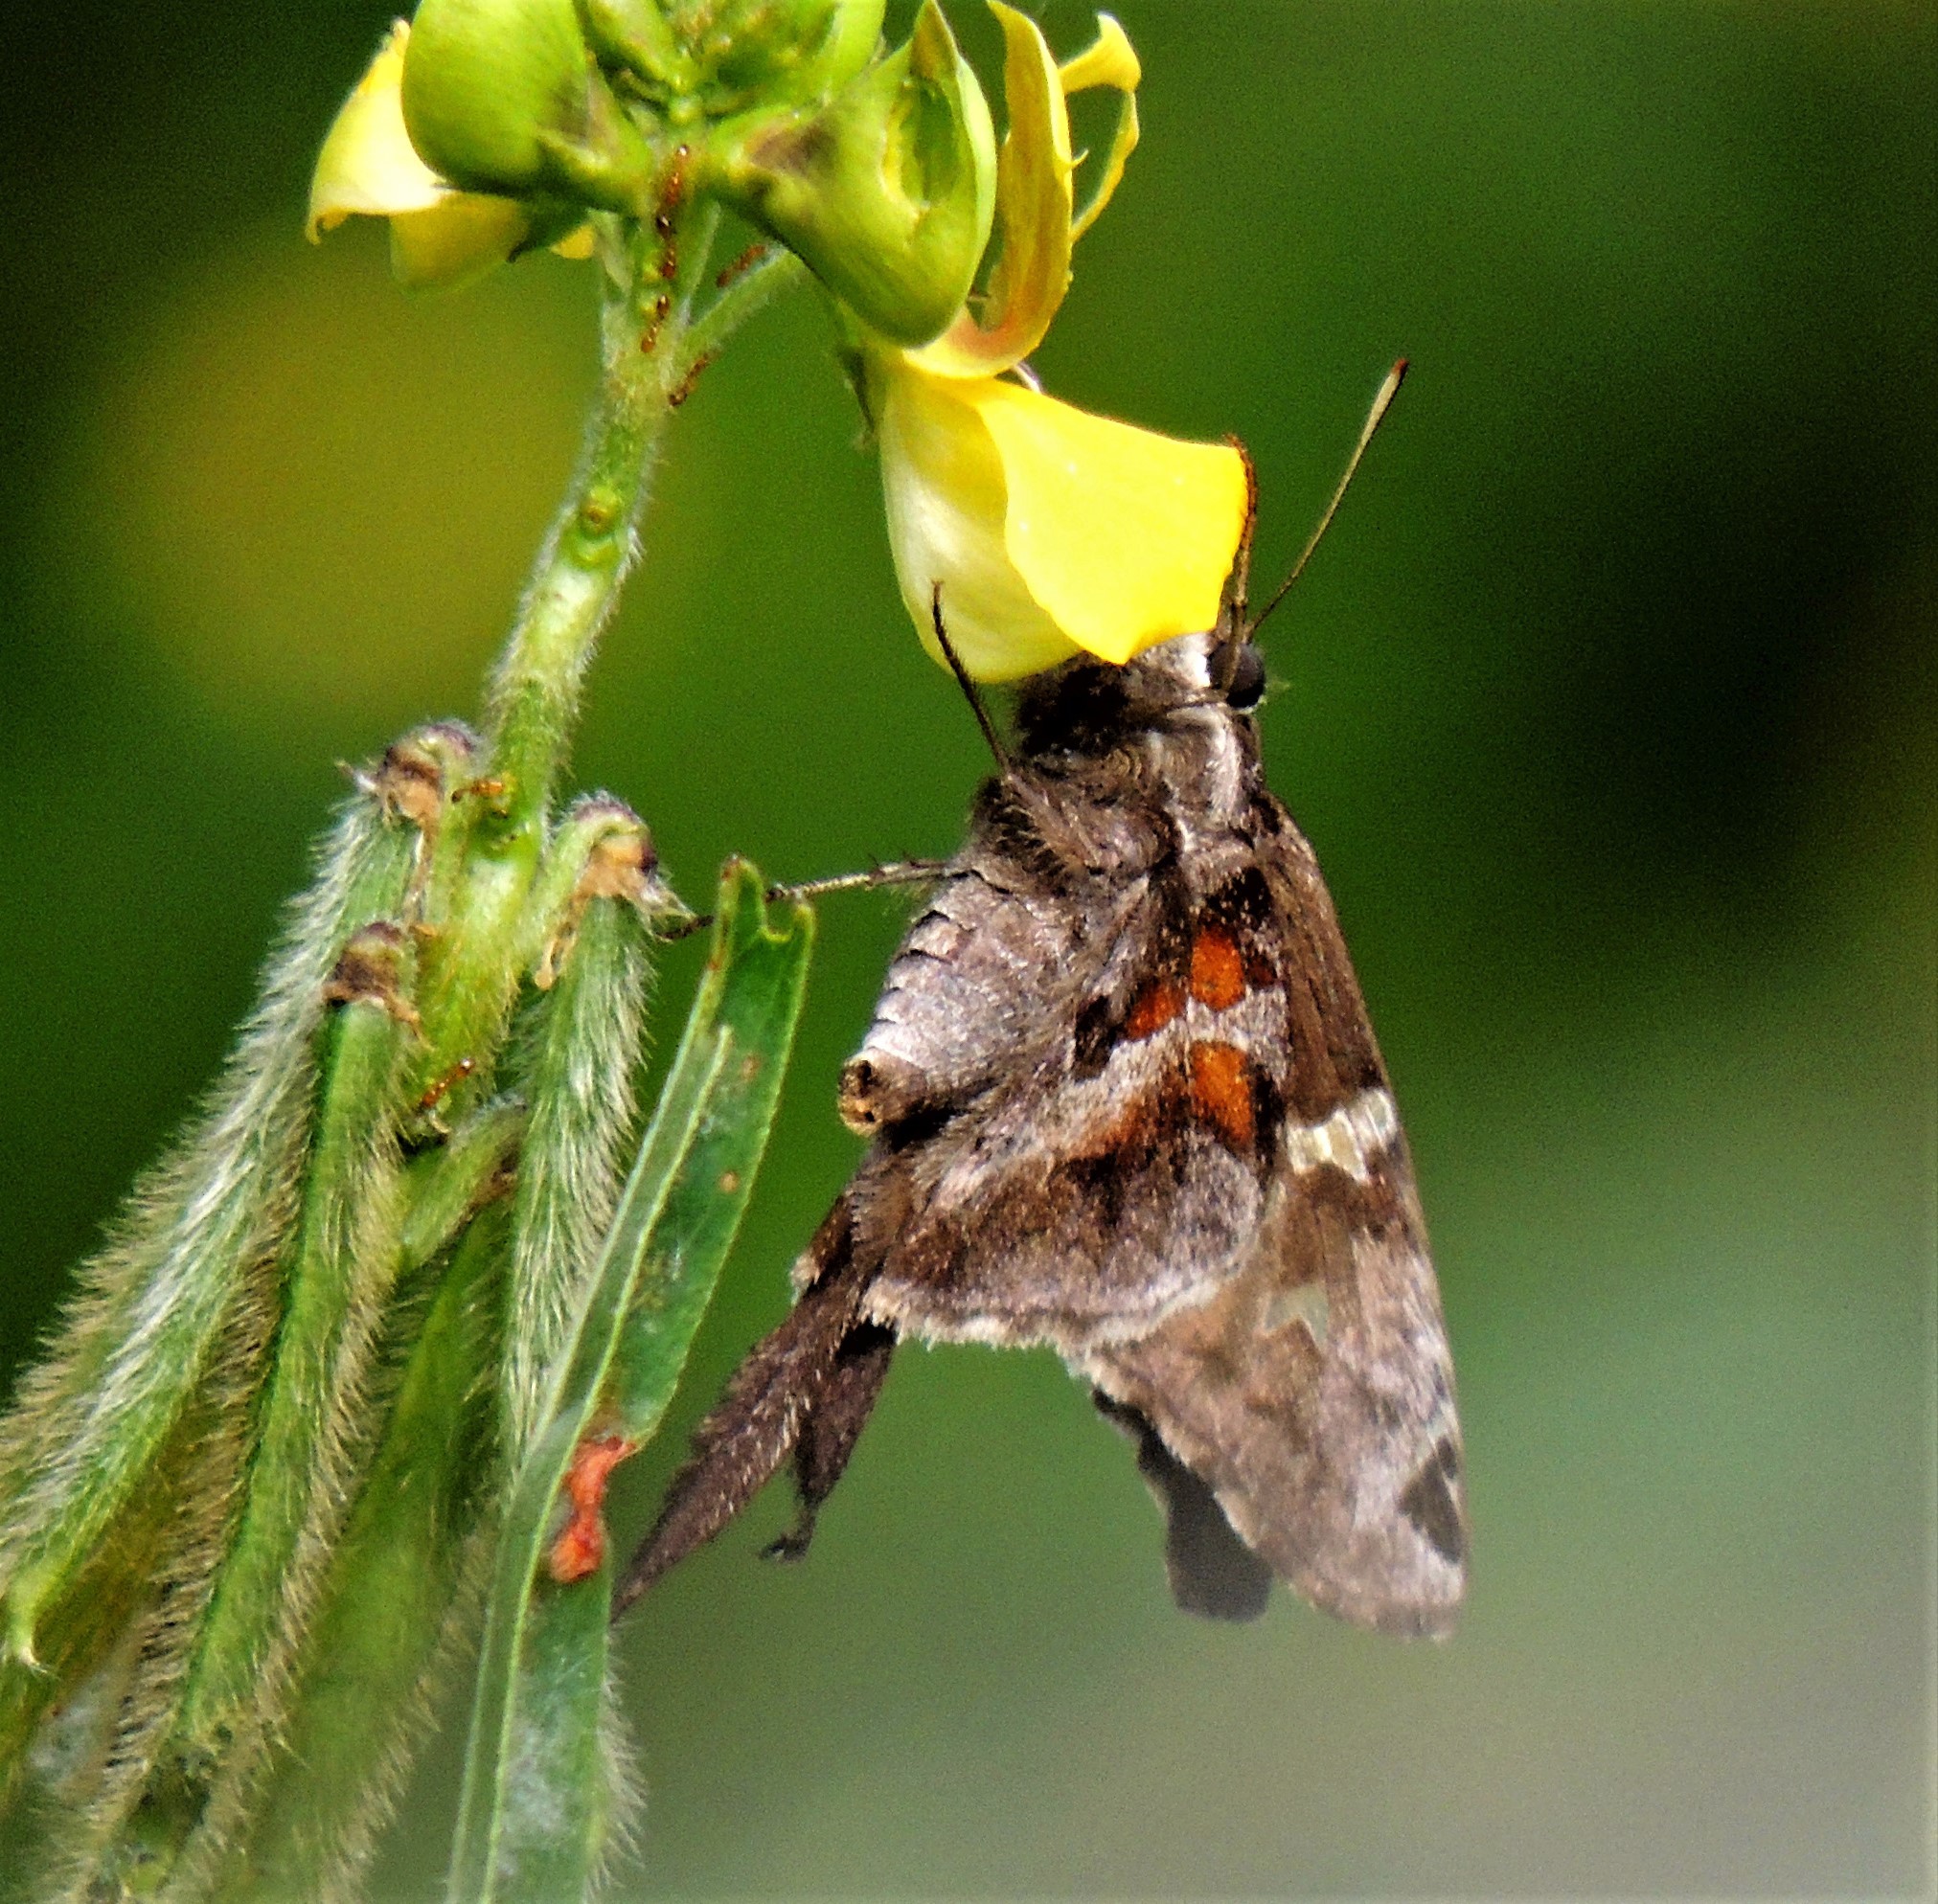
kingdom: Animalia
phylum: Arthropoda
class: Insecta
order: Lepidoptera
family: Hesperiidae
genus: Chioides
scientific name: Chioides catillus
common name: Silverbanded skipper
